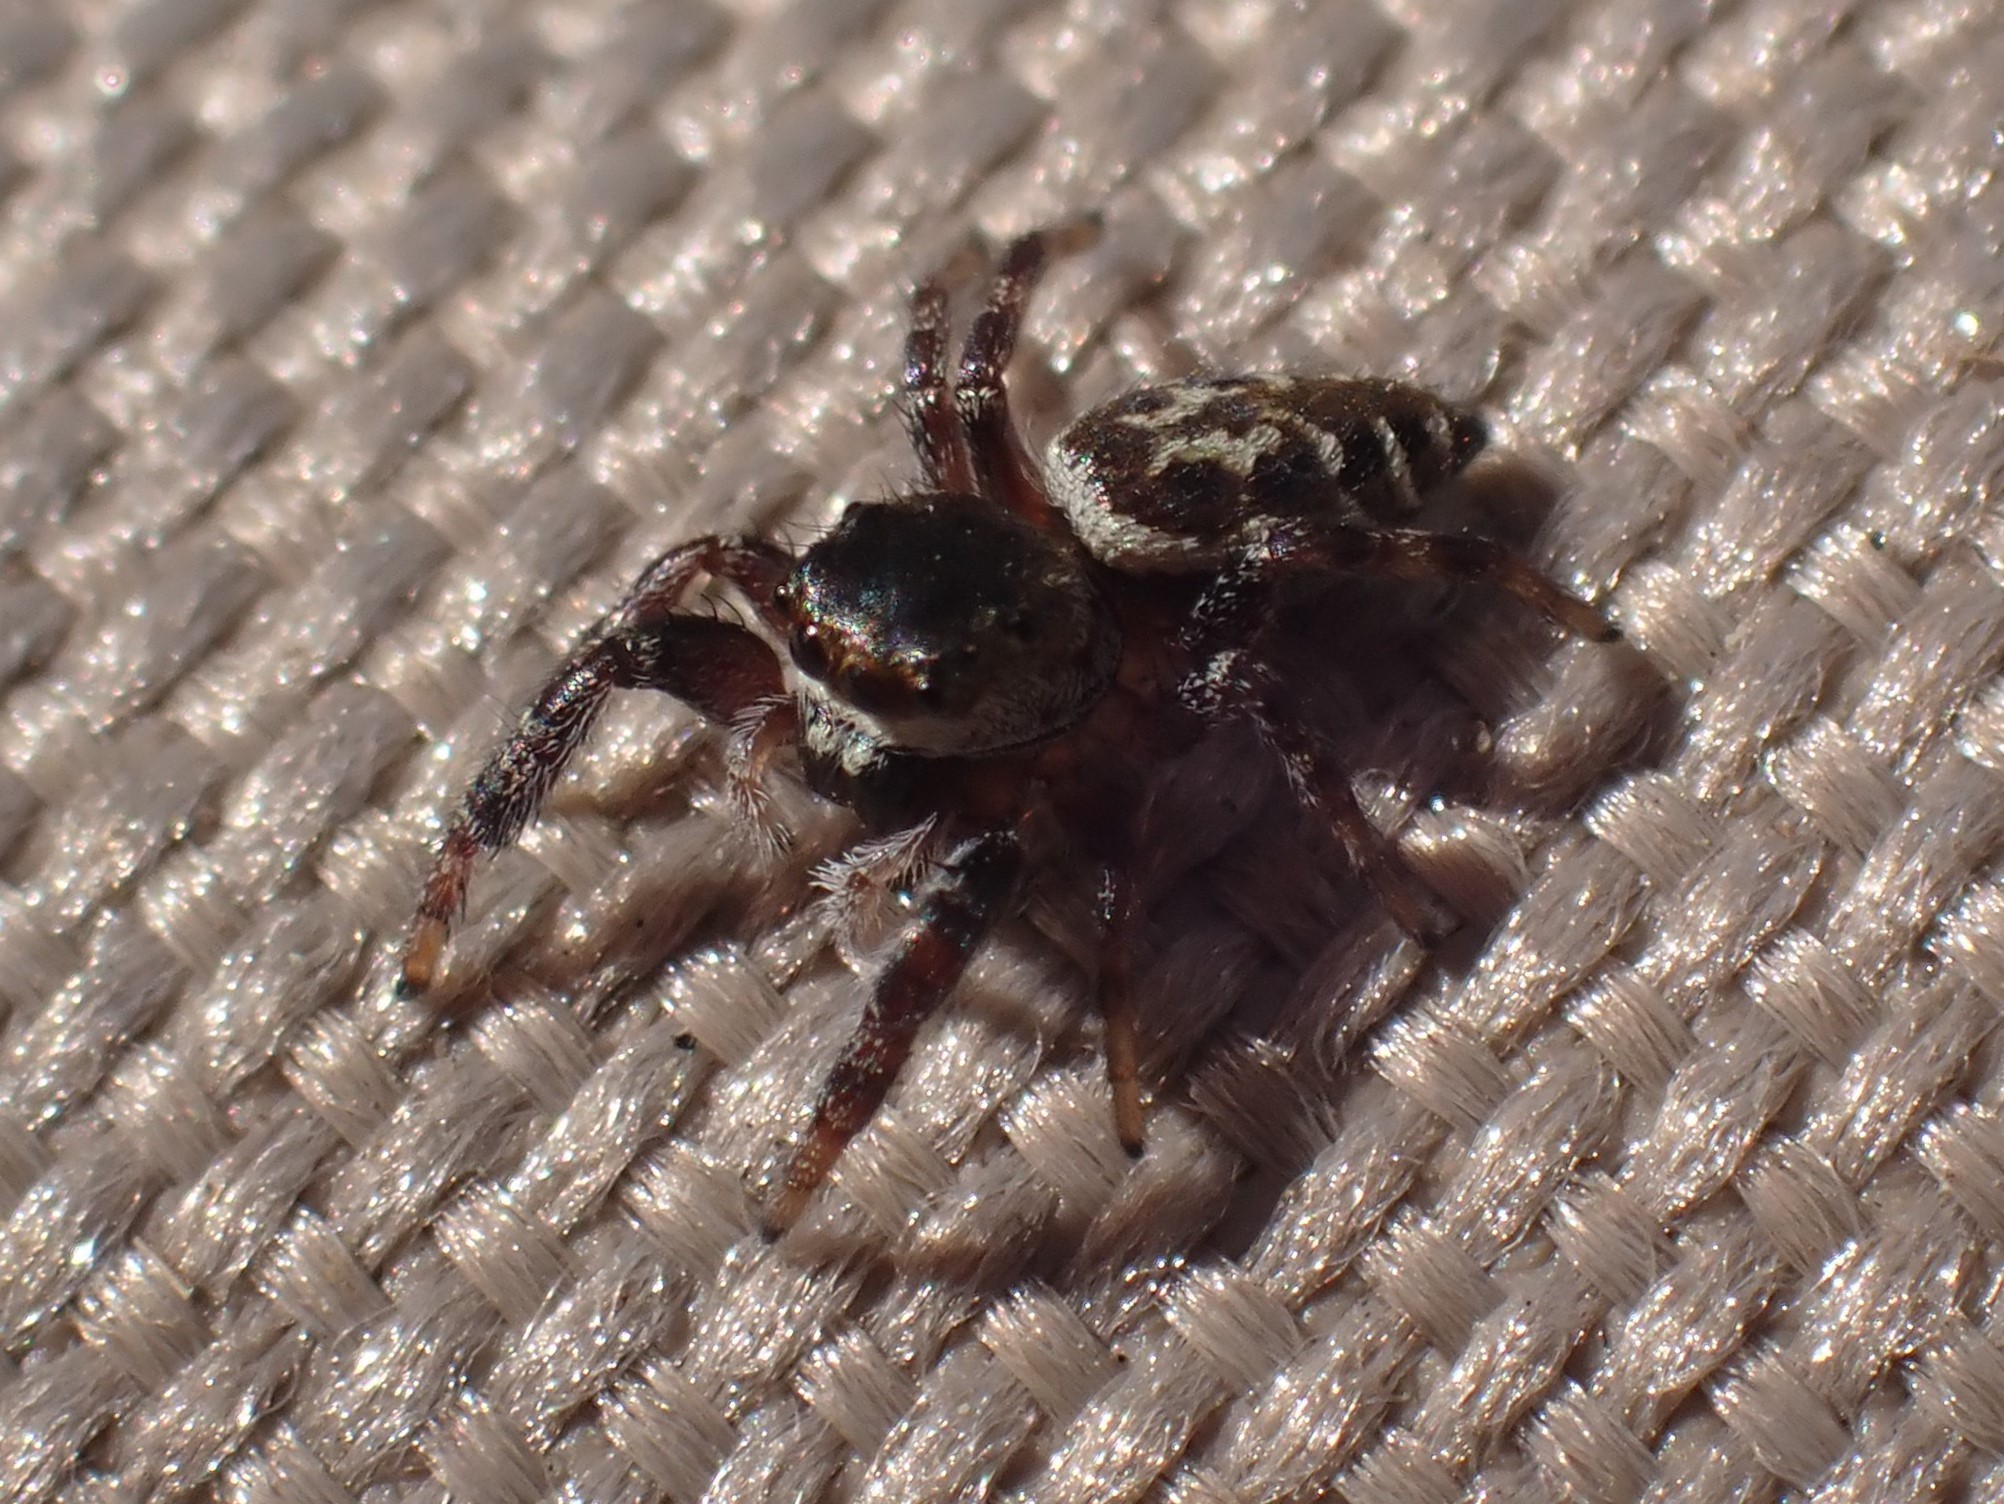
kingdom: Animalia
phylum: Arthropoda
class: Arachnida
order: Araneae
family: Salticidae
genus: Metaphidippus
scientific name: Metaphidippus manni
